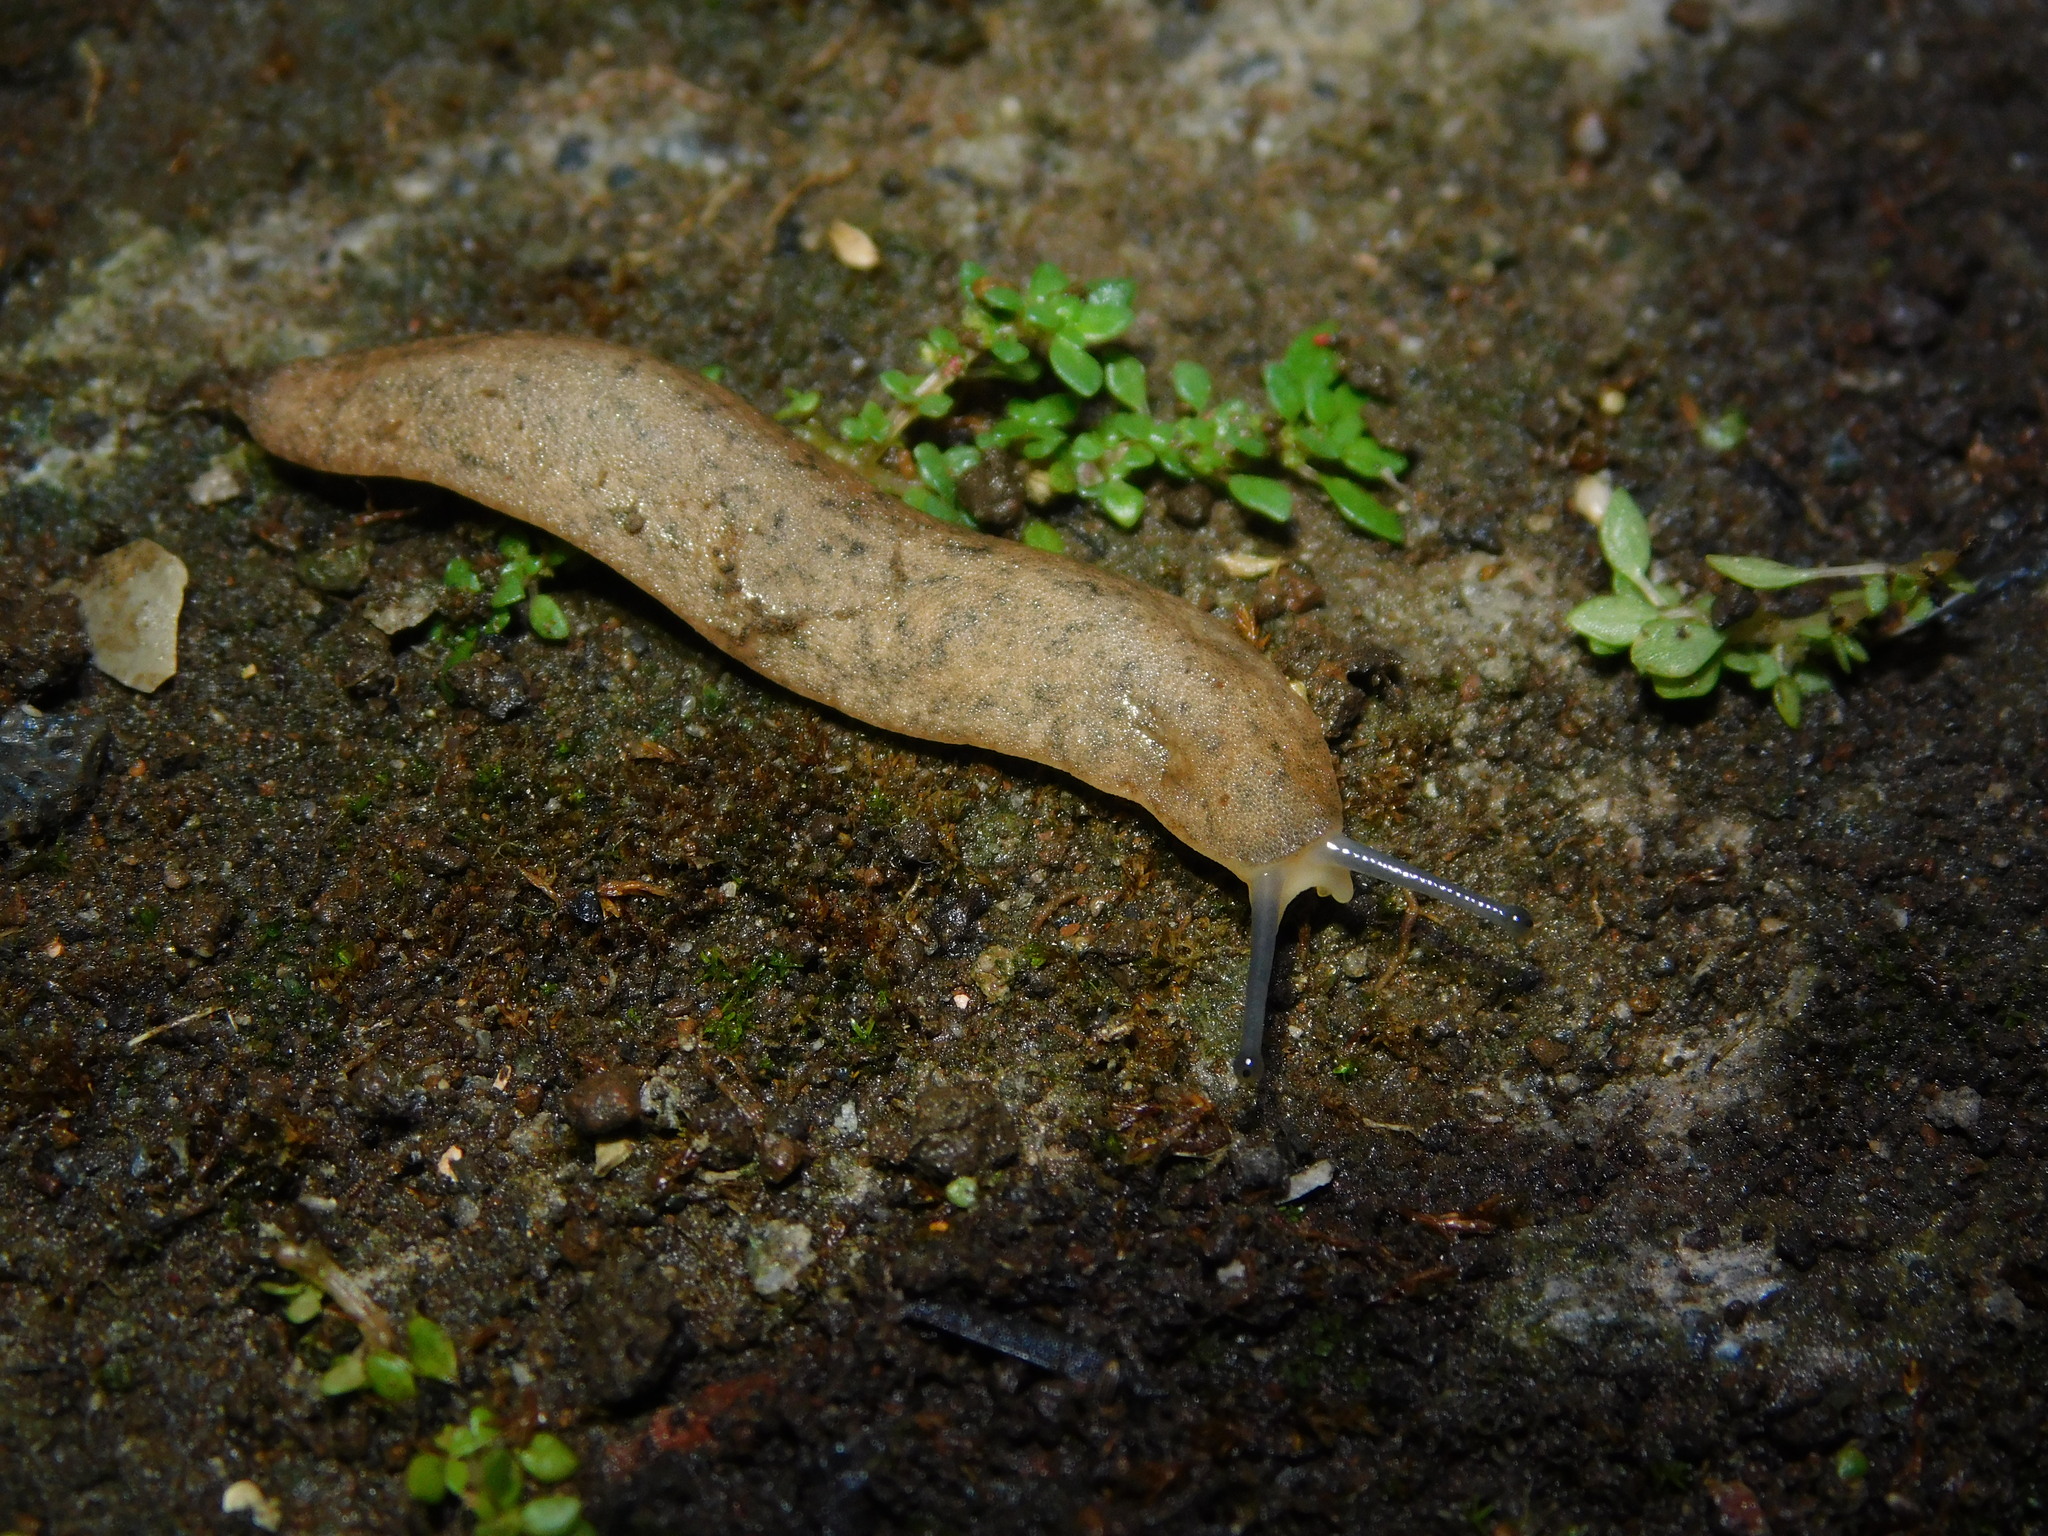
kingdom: Animalia
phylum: Mollusca
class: Gastropoda
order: Systellommatophora
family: Veronicellidae
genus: Sarasinula
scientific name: Sarasinula plebeia
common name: Caribbean leatherleaf
